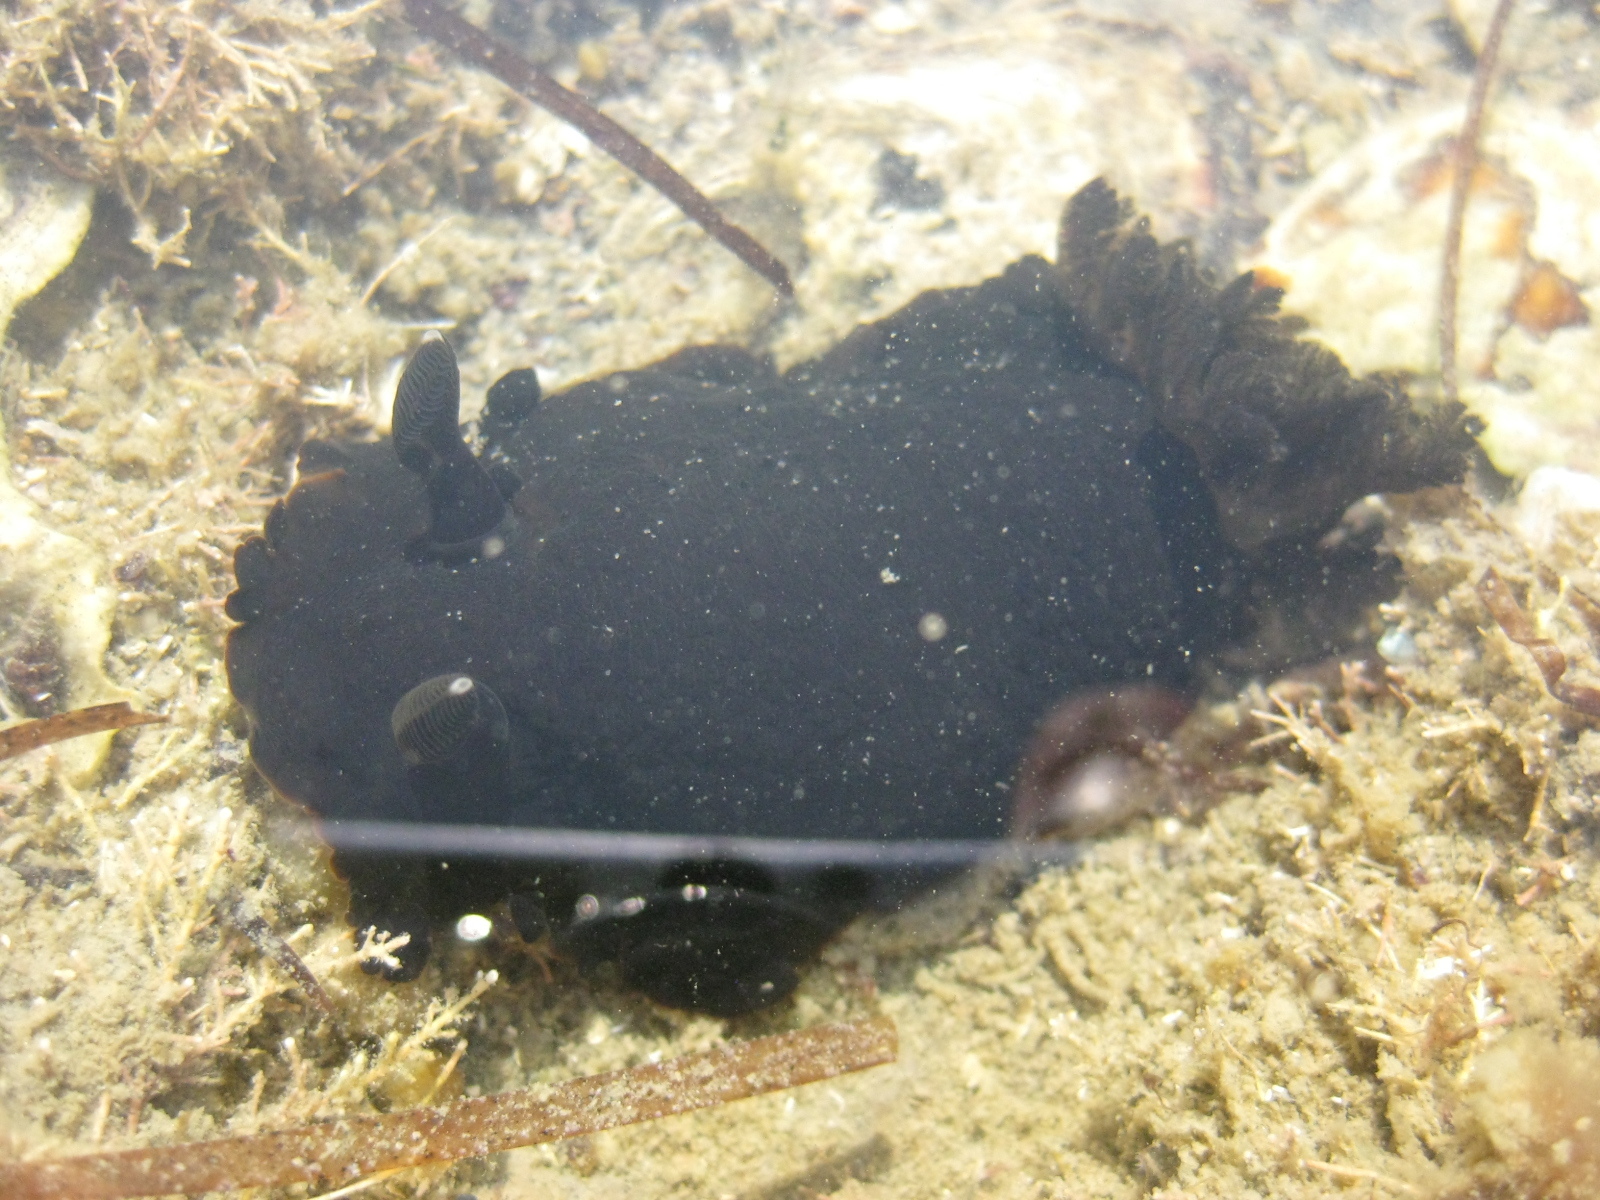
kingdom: Animalia
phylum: Mollusca
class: Gastropoda
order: Nudibranchia
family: Dendrodorididae
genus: Dendrodoris
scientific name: Dendrodoris arborescens
